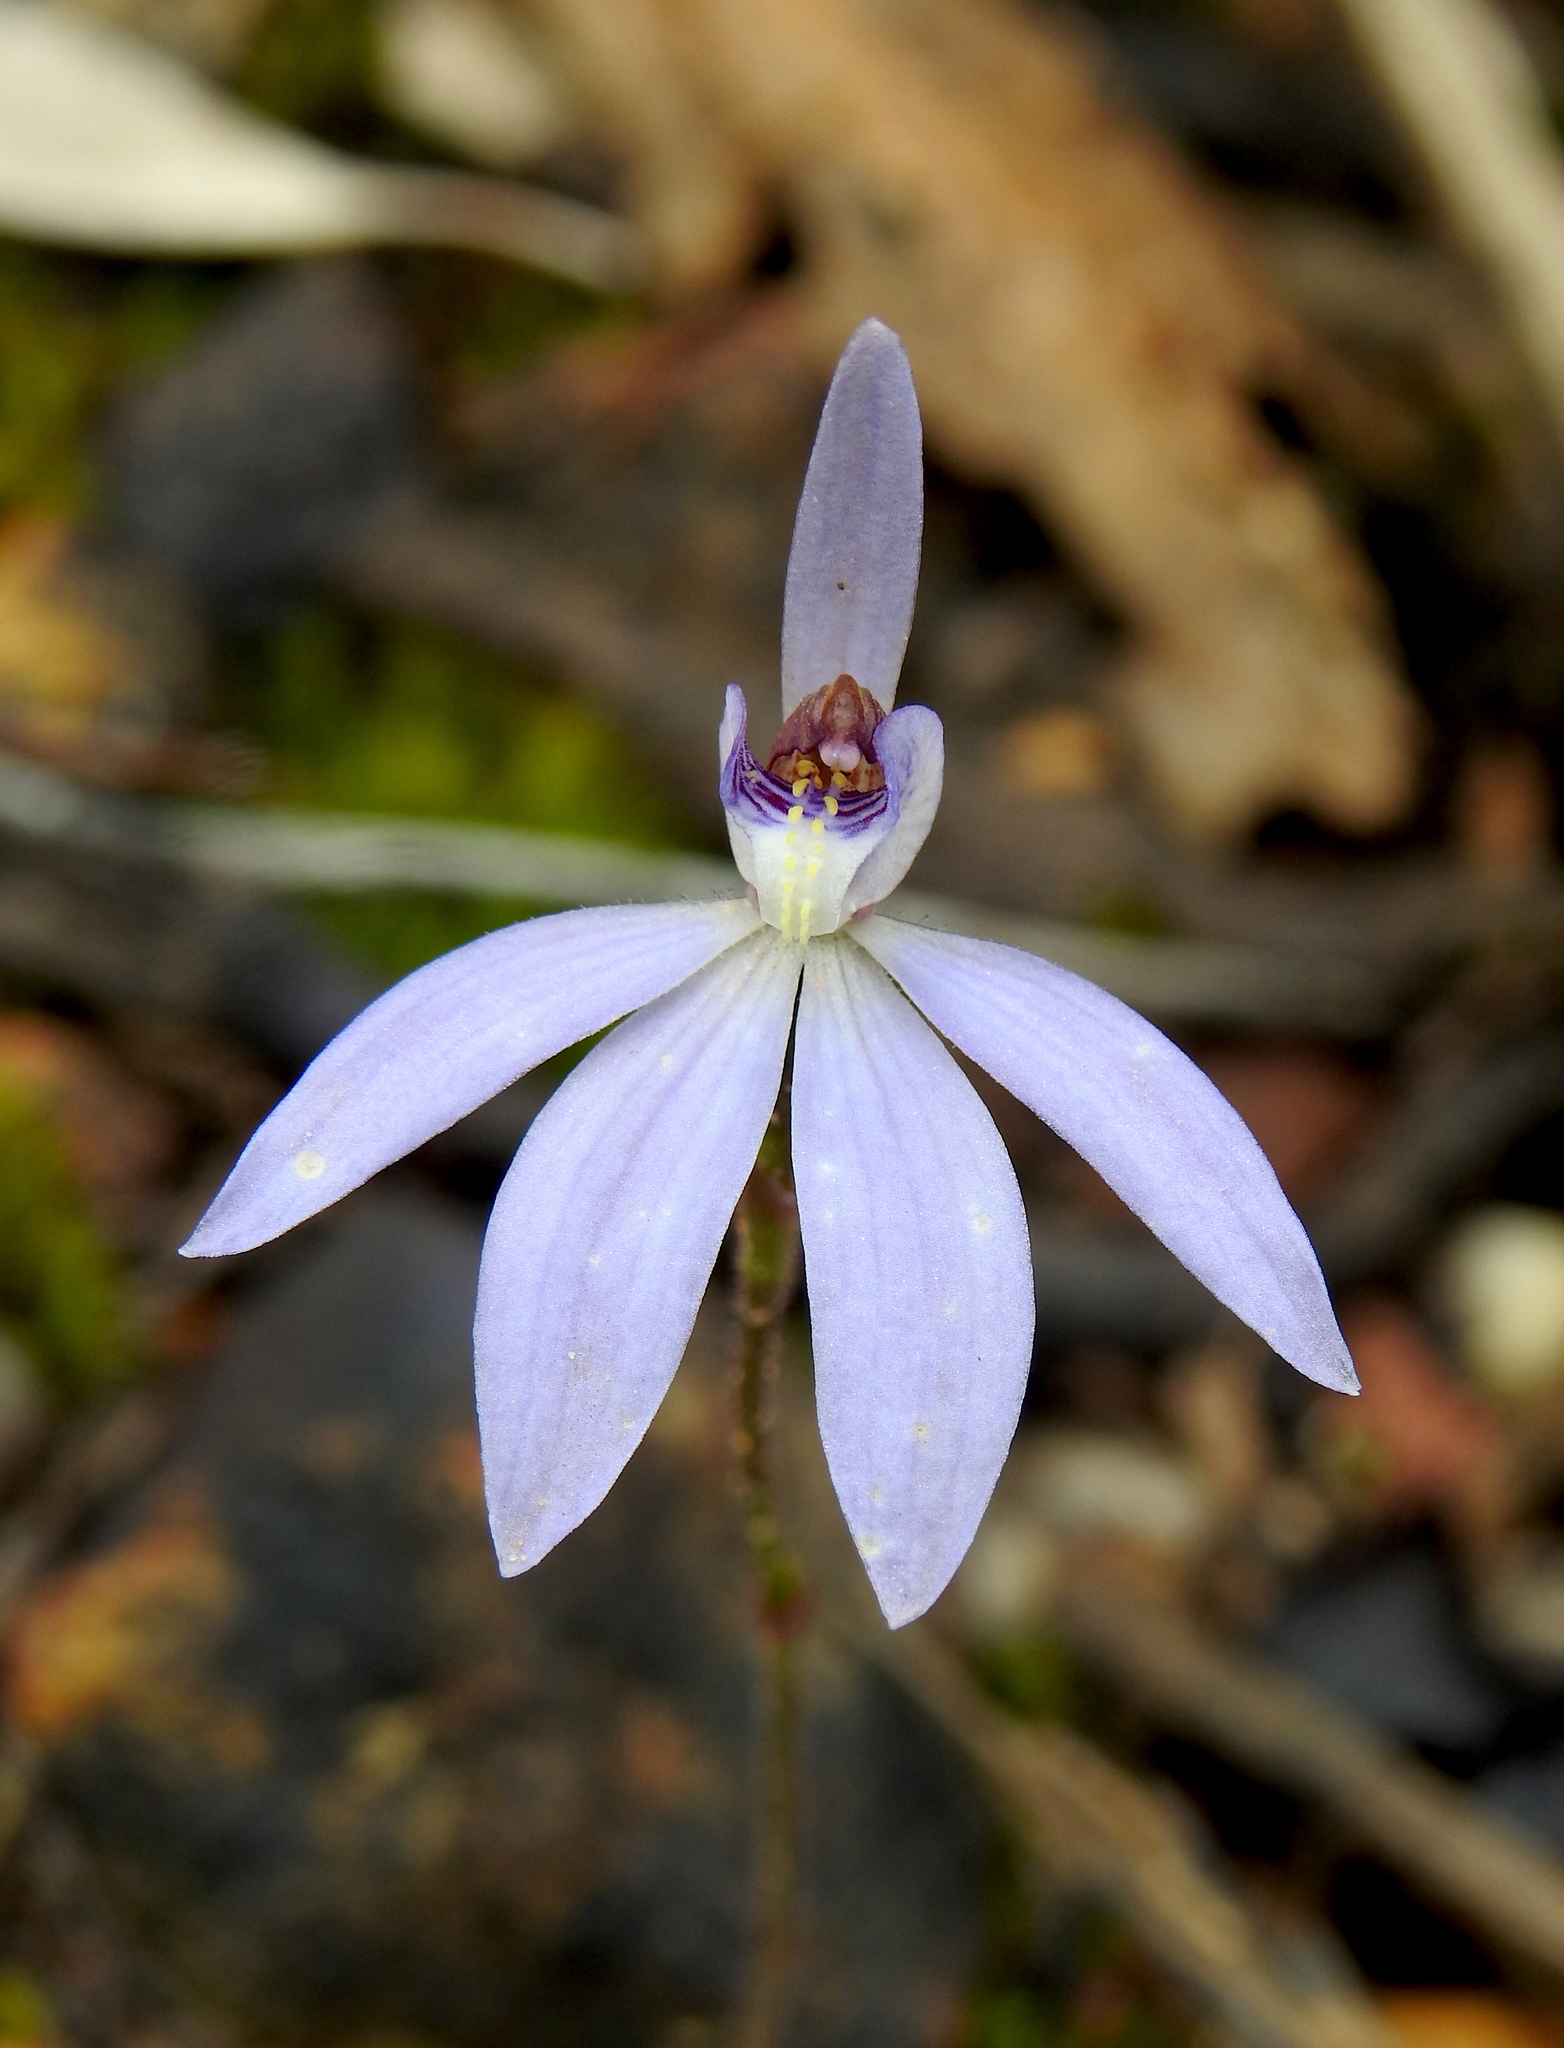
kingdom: Plantae
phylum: Tracheophyta
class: Liliopsida
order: Asparagales
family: Orchidaceae
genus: Caladenia
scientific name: Caladenia caerulea
